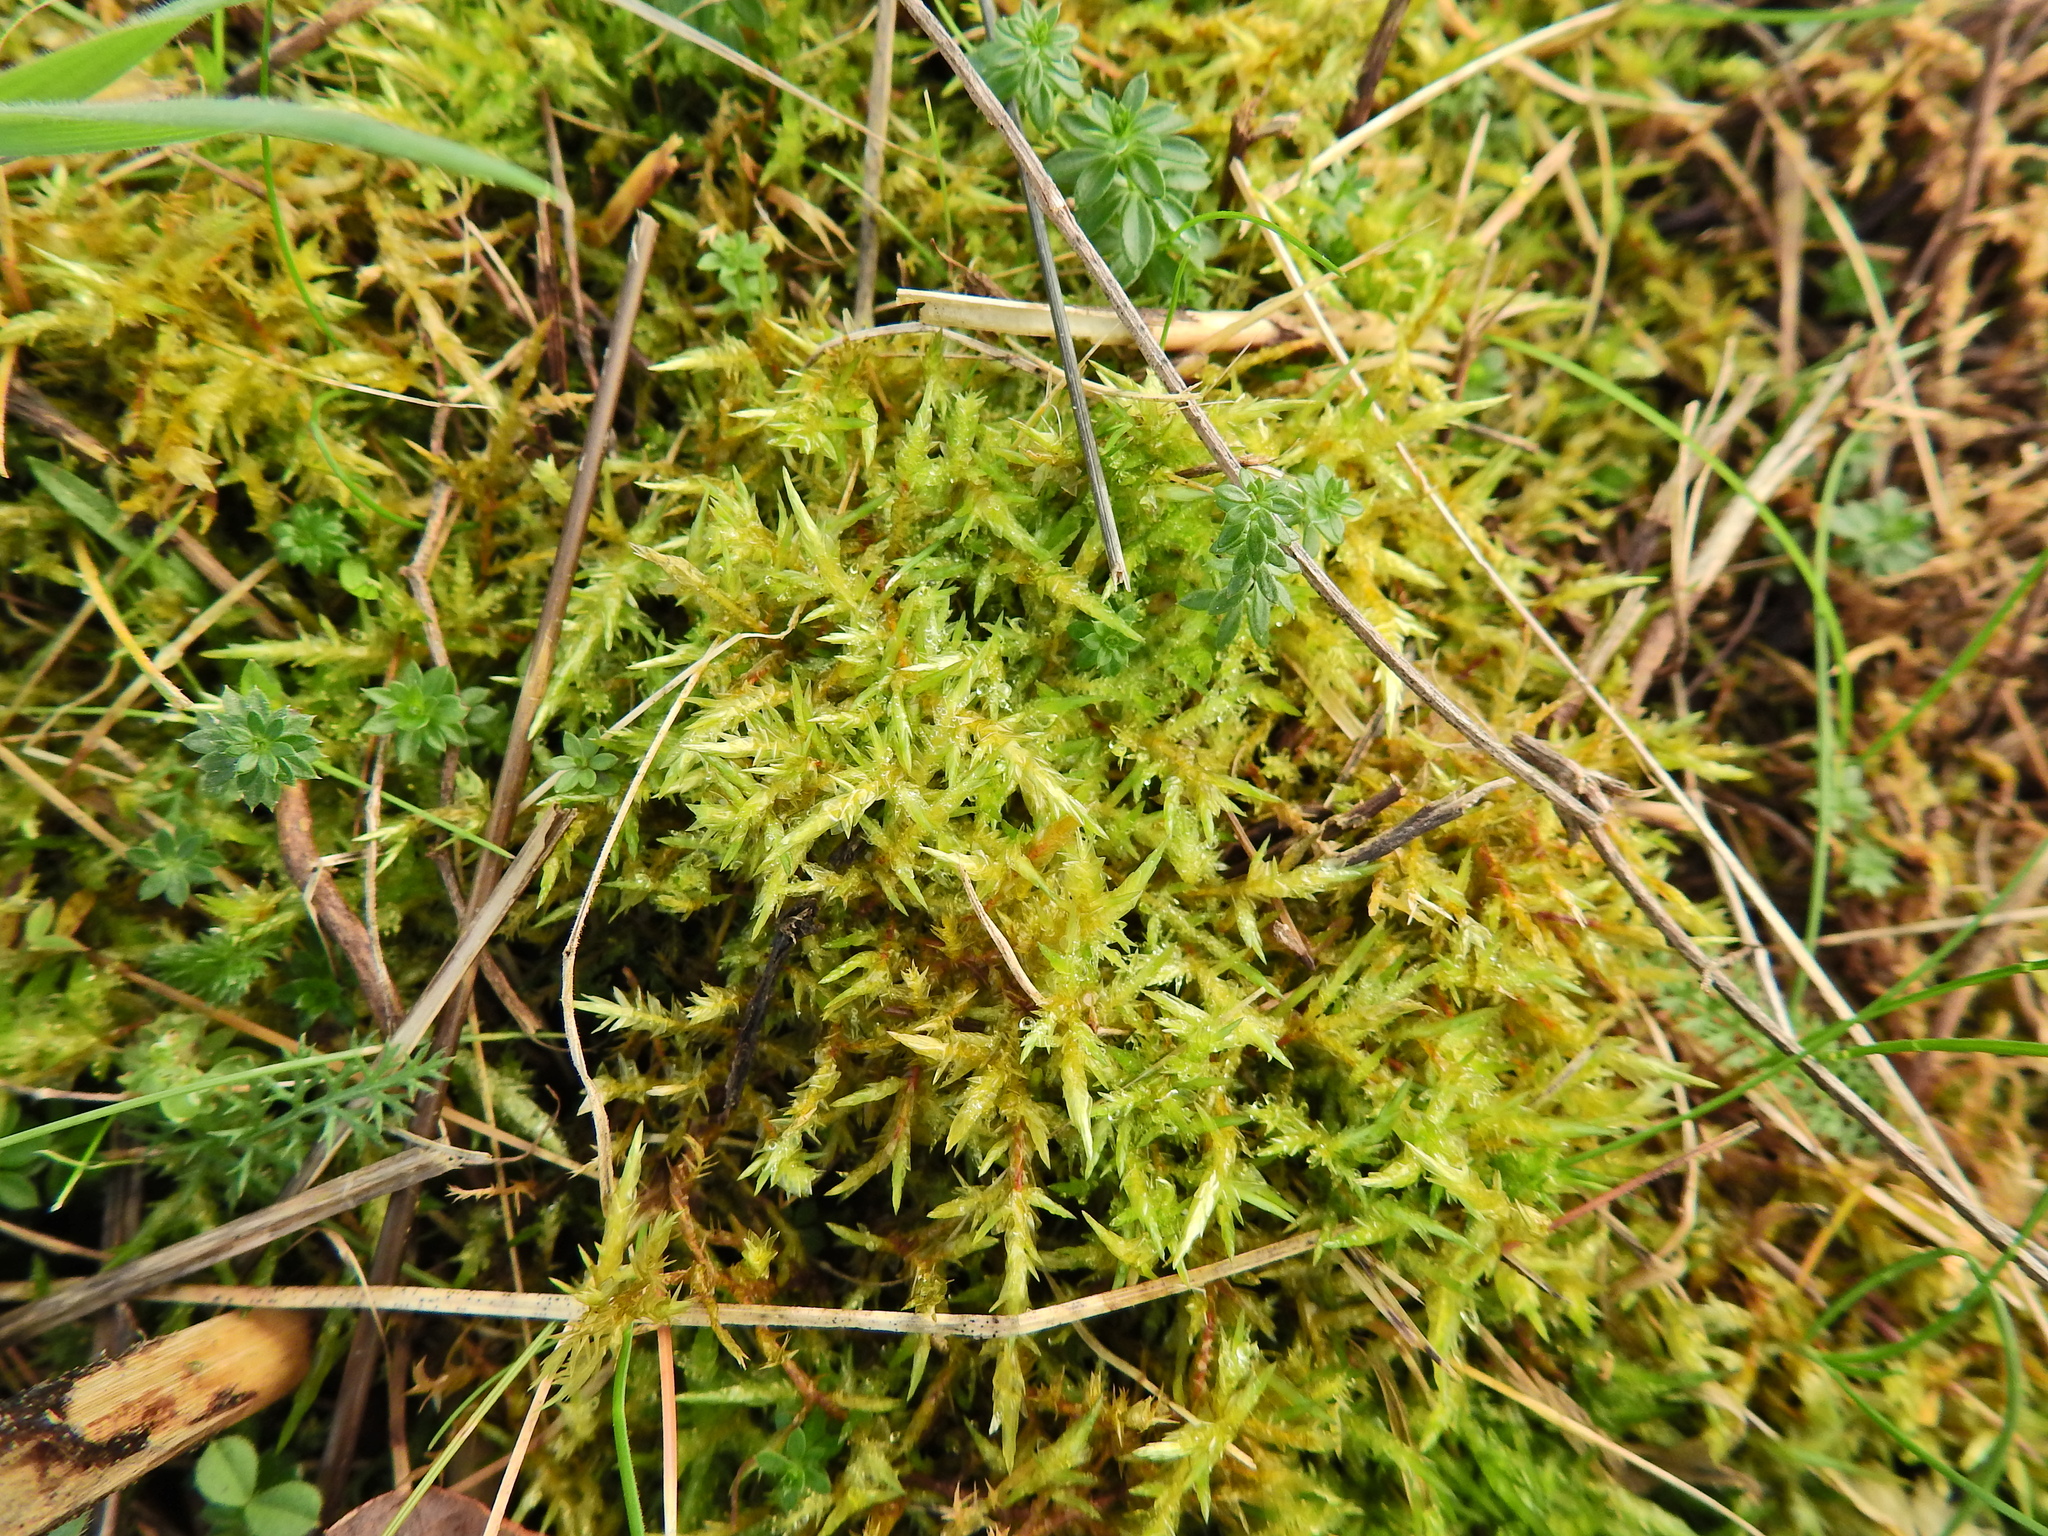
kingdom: Plantae
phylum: Bryophyta
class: Bryopsida
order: Hypnales
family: Pylaisiaceae
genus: Calliergonella
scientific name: Calliergonella cuspidata
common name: Common large wetland moss
